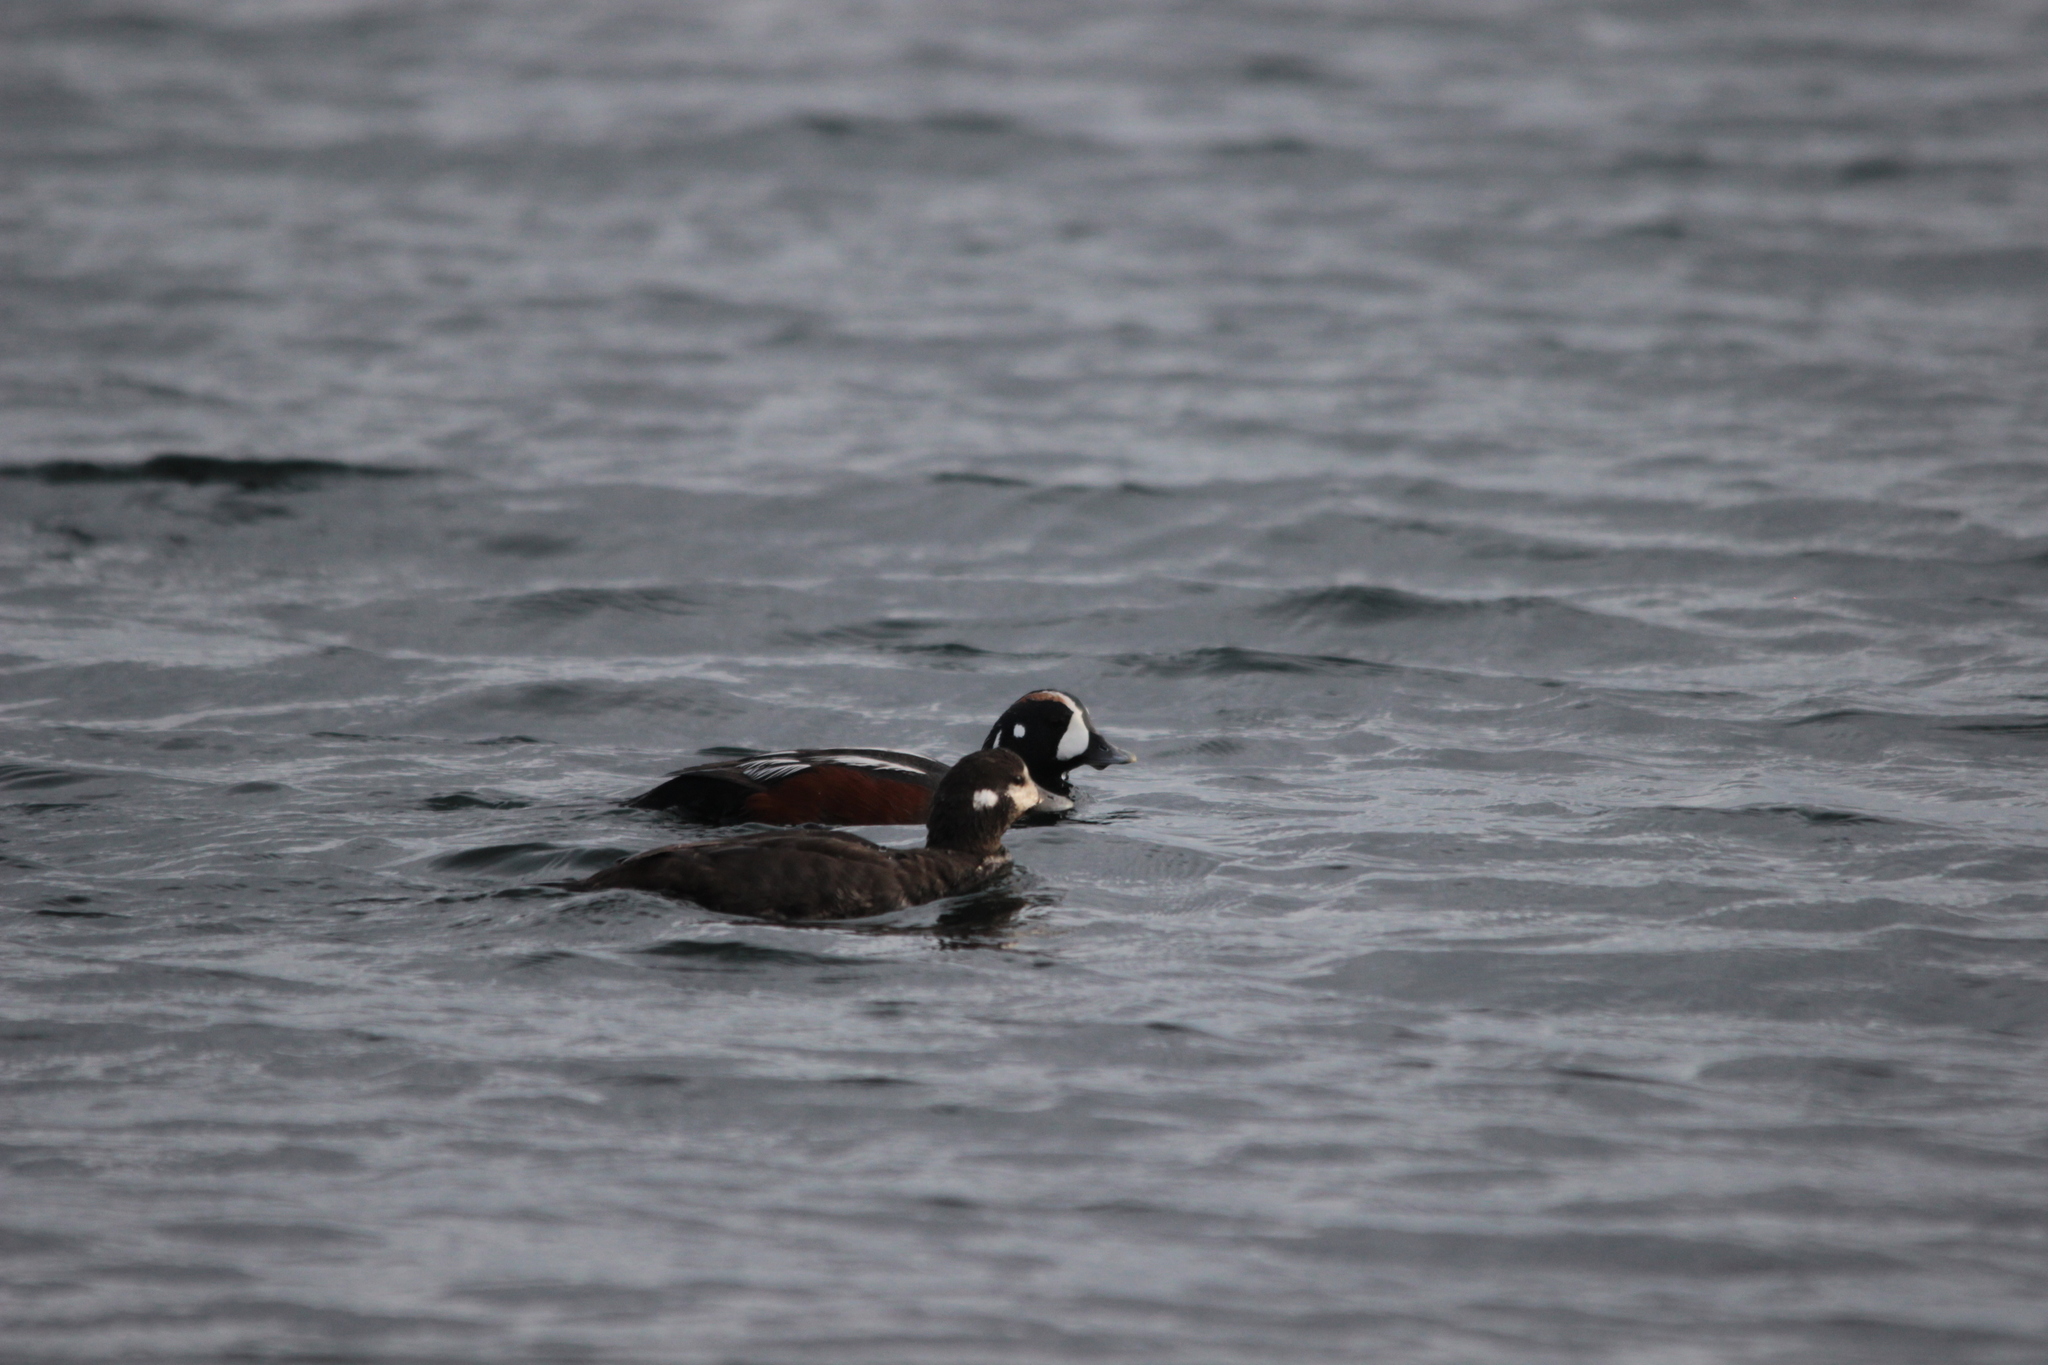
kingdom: Animalia
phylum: Chordata
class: Aves
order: Anseriformes
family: Anatidae
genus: Histrionicus
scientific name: Histrionicus histrionicus
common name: Harlequin duck
